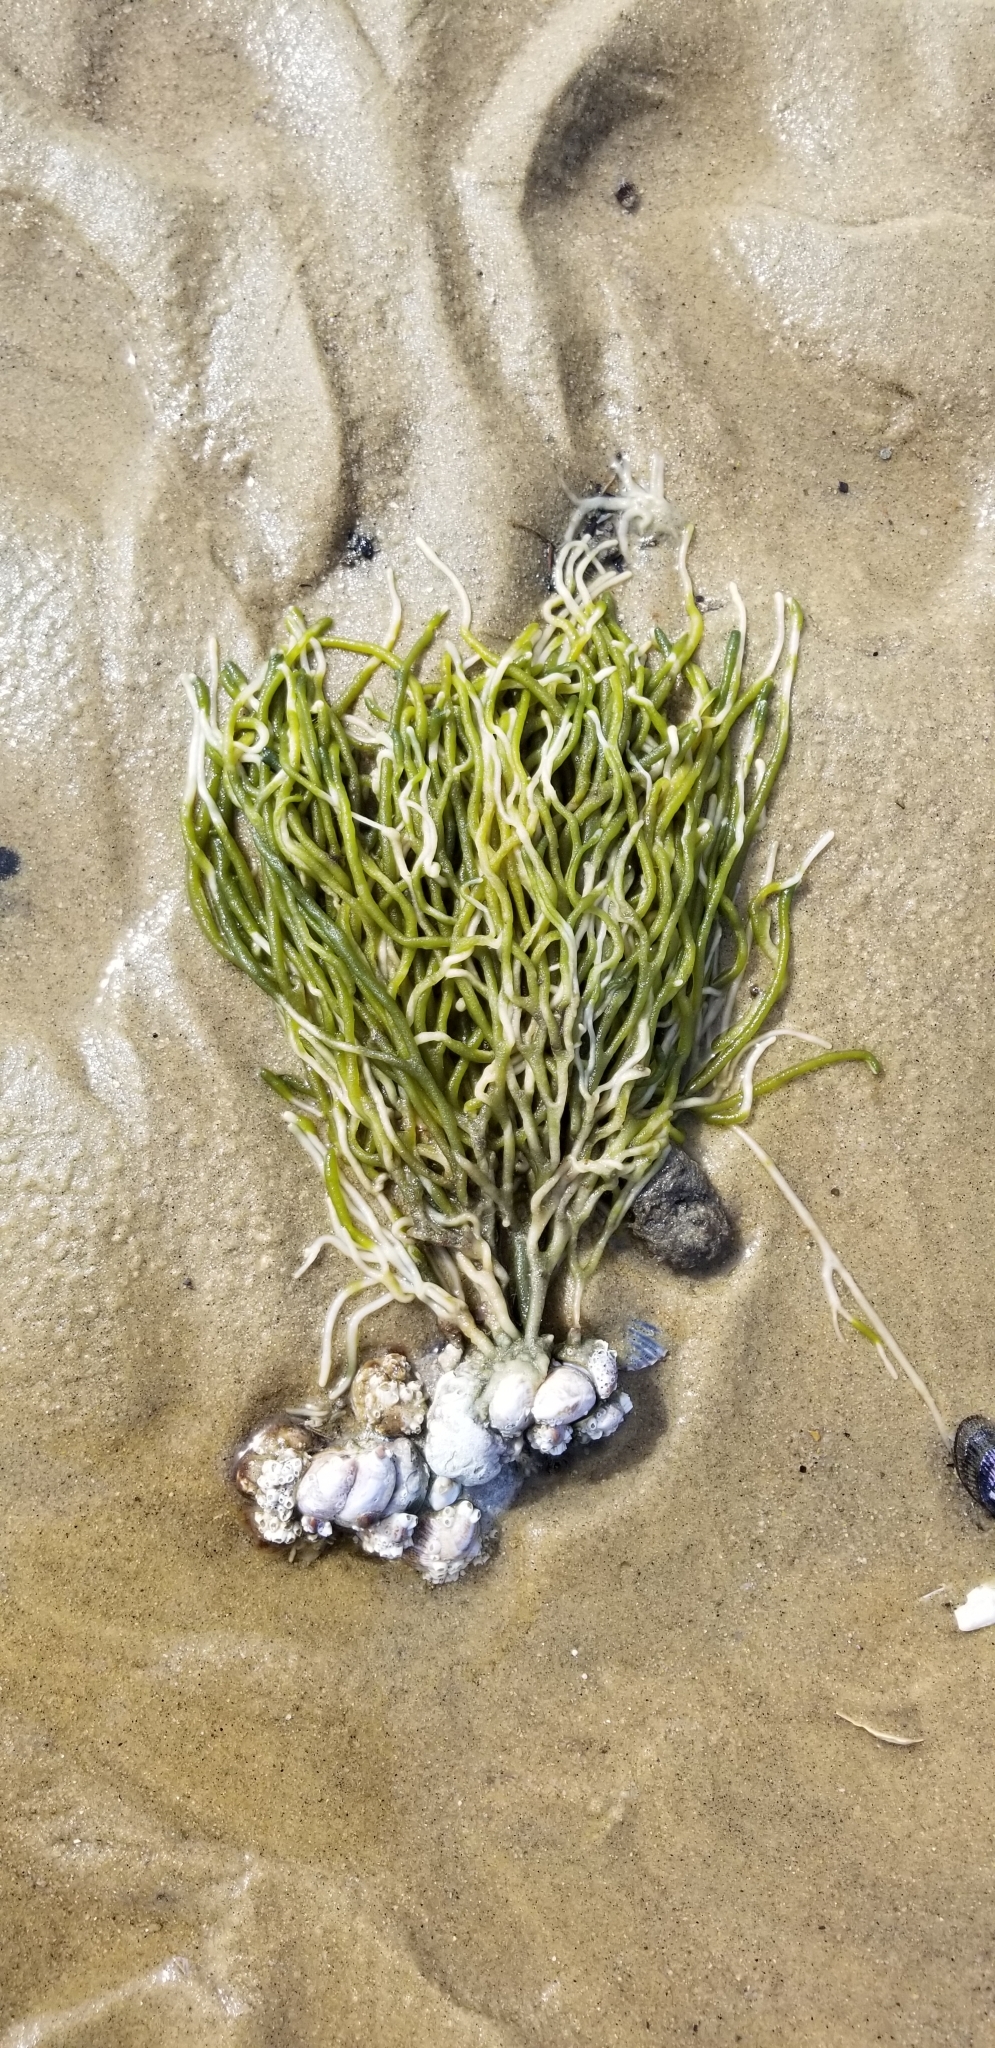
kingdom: Plantae
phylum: Chlorophyta
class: Ulvophyceae
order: Bryopsidales
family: Codiaceae
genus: Codium
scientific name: Codium fragile
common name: Dead man's fingers
